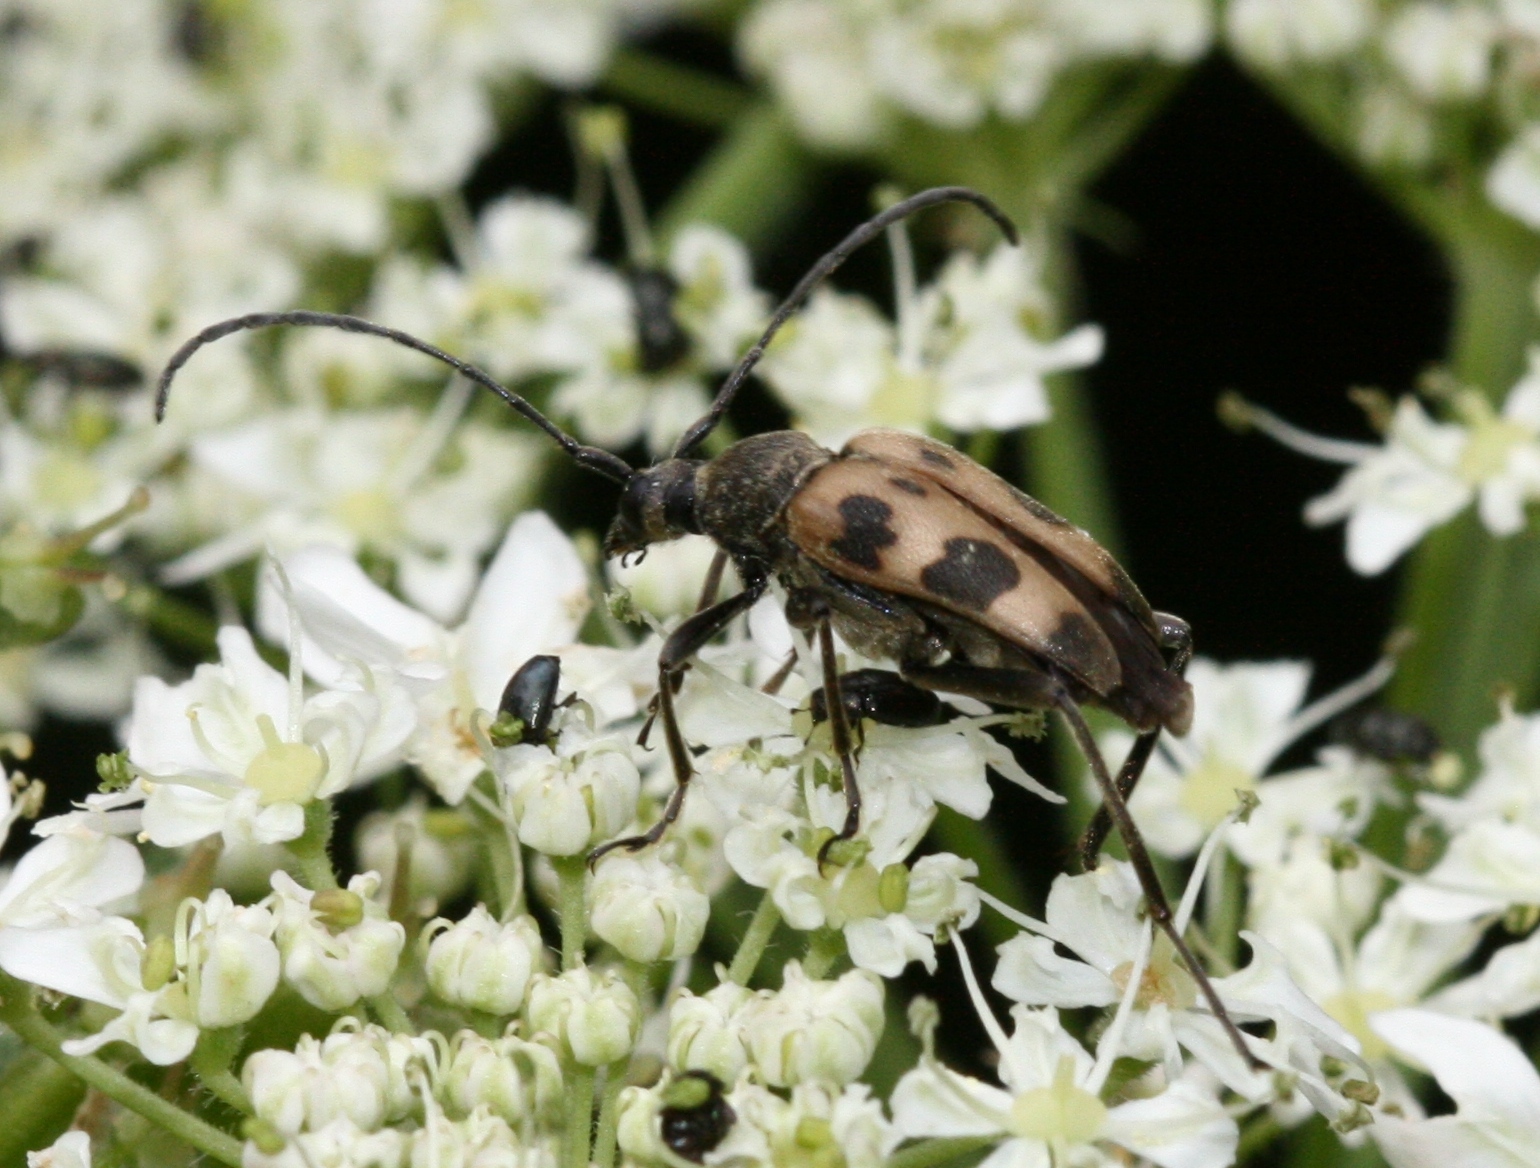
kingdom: Animalia
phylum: Arthropoda
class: Insecta
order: Coleoptera
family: Cerambycidae
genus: Pachytodes
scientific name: Pachytodes cerambyciformis
